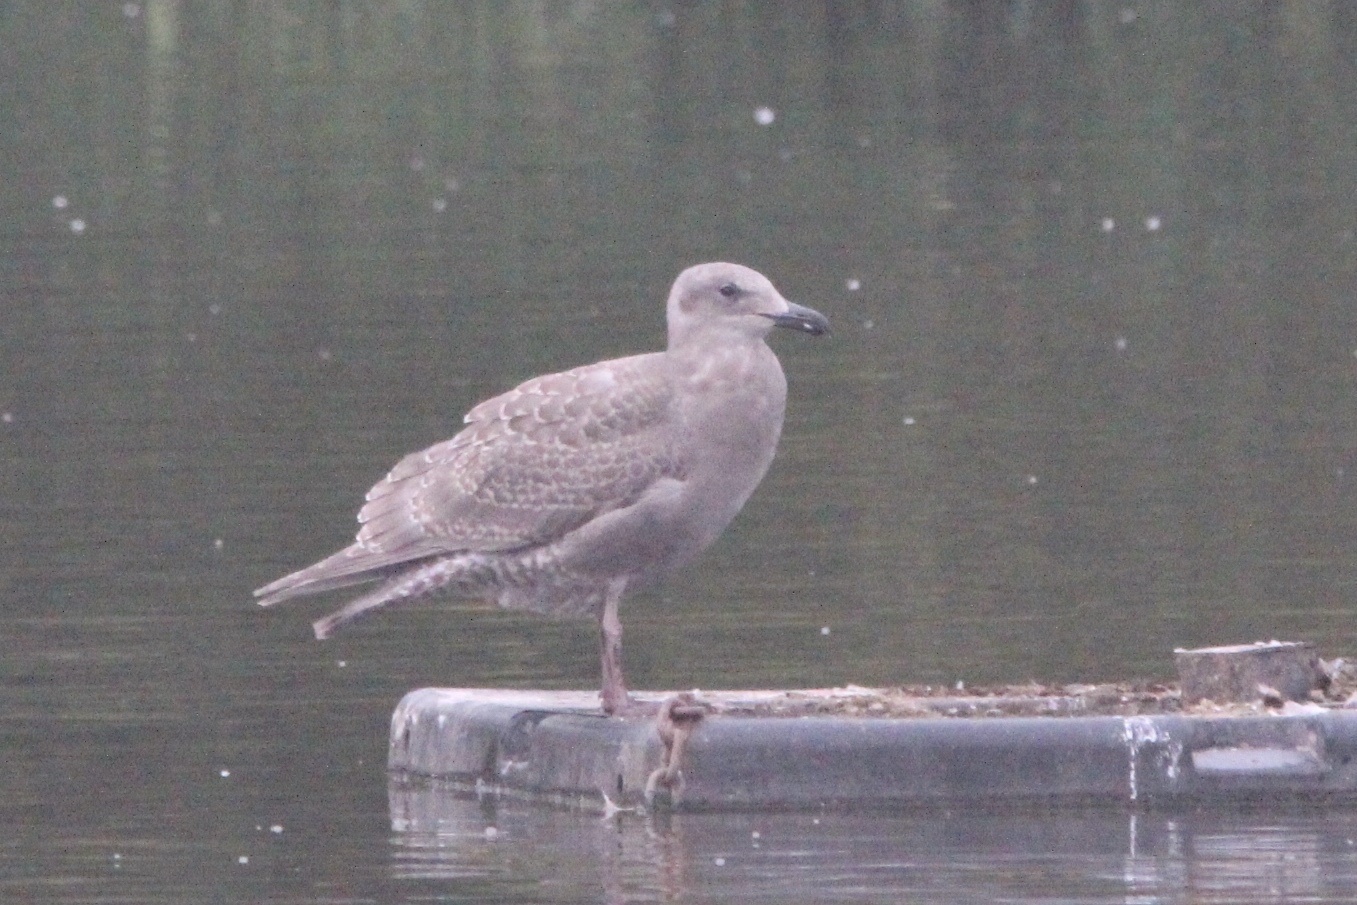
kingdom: Animalia
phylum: Chordata
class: Aves
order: Charadriiformes
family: Laridae
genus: Larus
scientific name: Larus glaucescens
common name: Glaucous-winged gull
